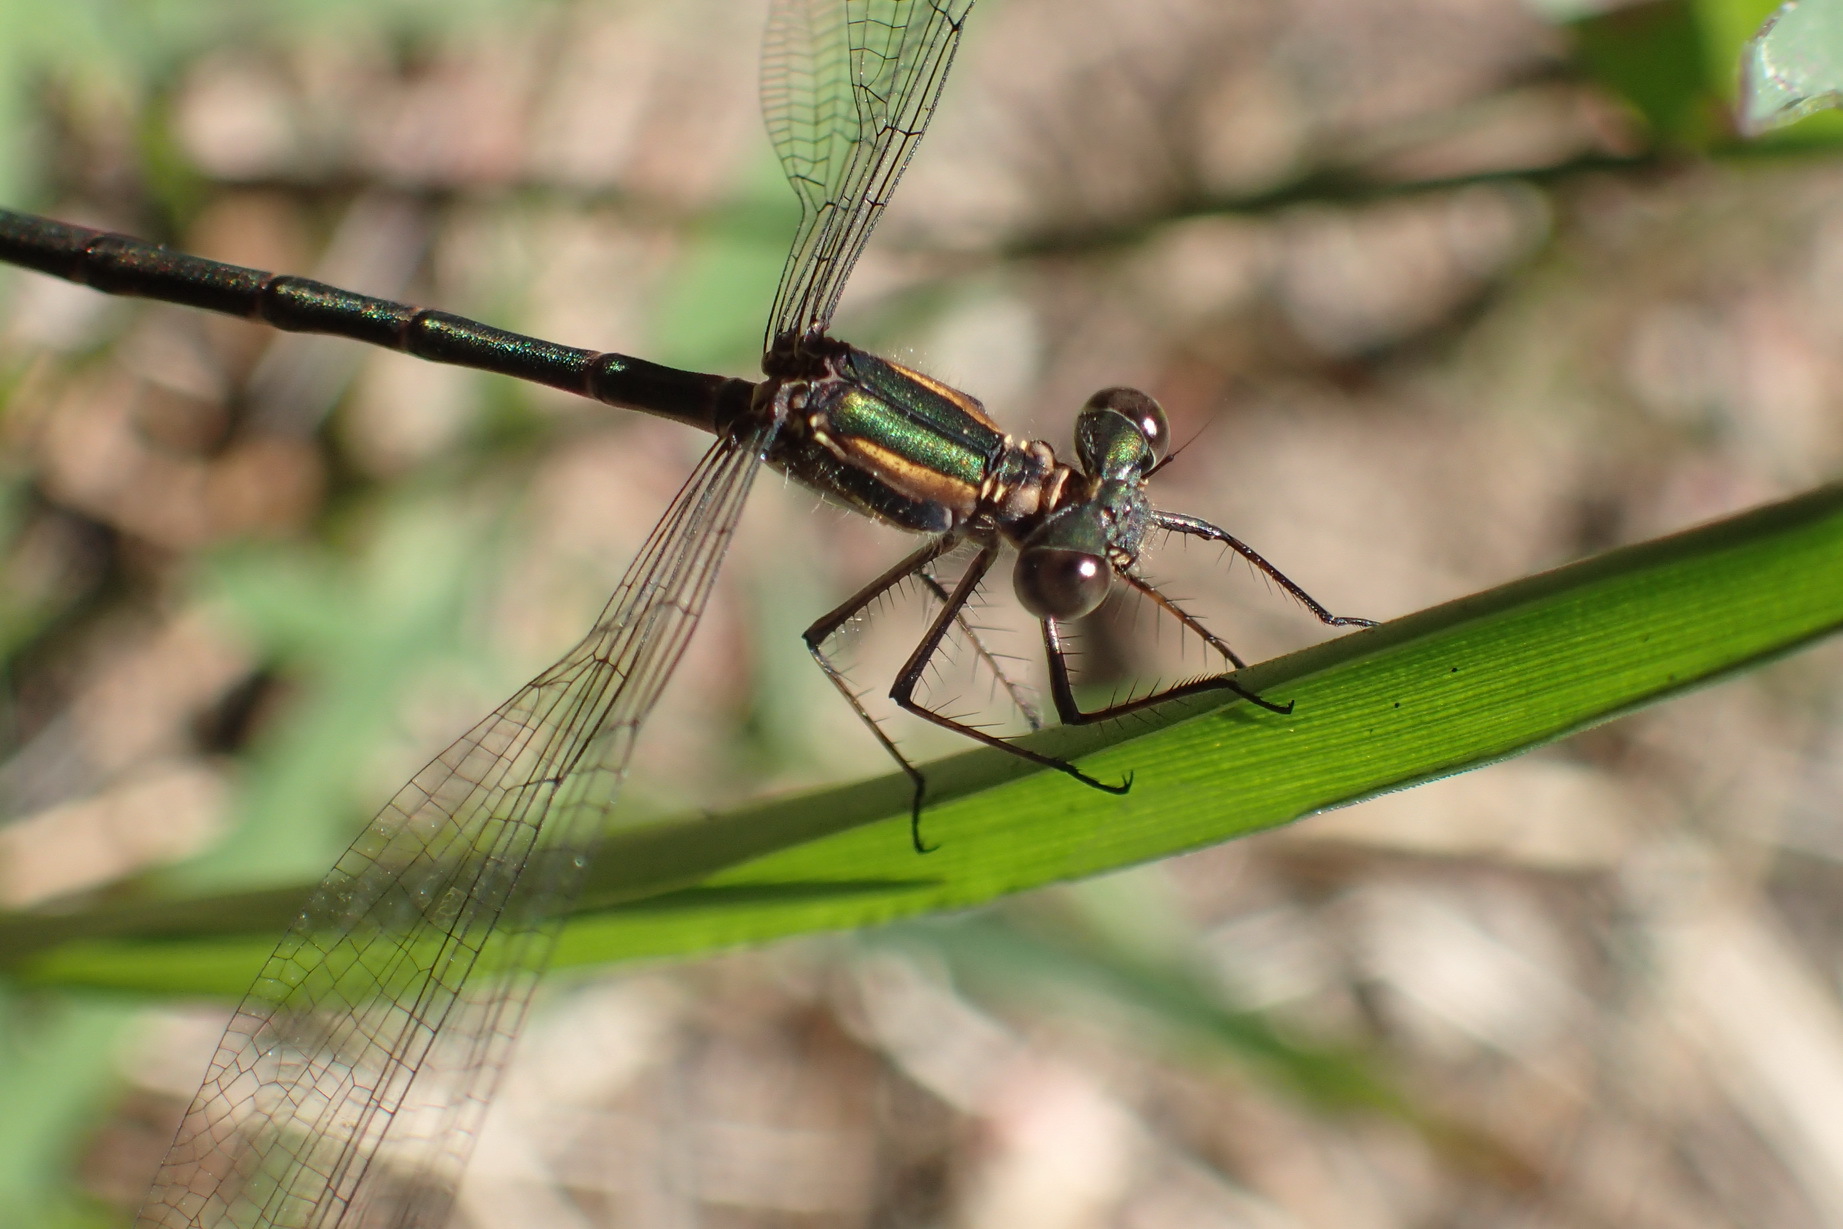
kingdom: Animalia
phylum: Arthropoda
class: Insecta
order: Odonata
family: Synlestidae
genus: Chlorolestes
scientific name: Chlorolestes tessellatus
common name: Forest malachite
